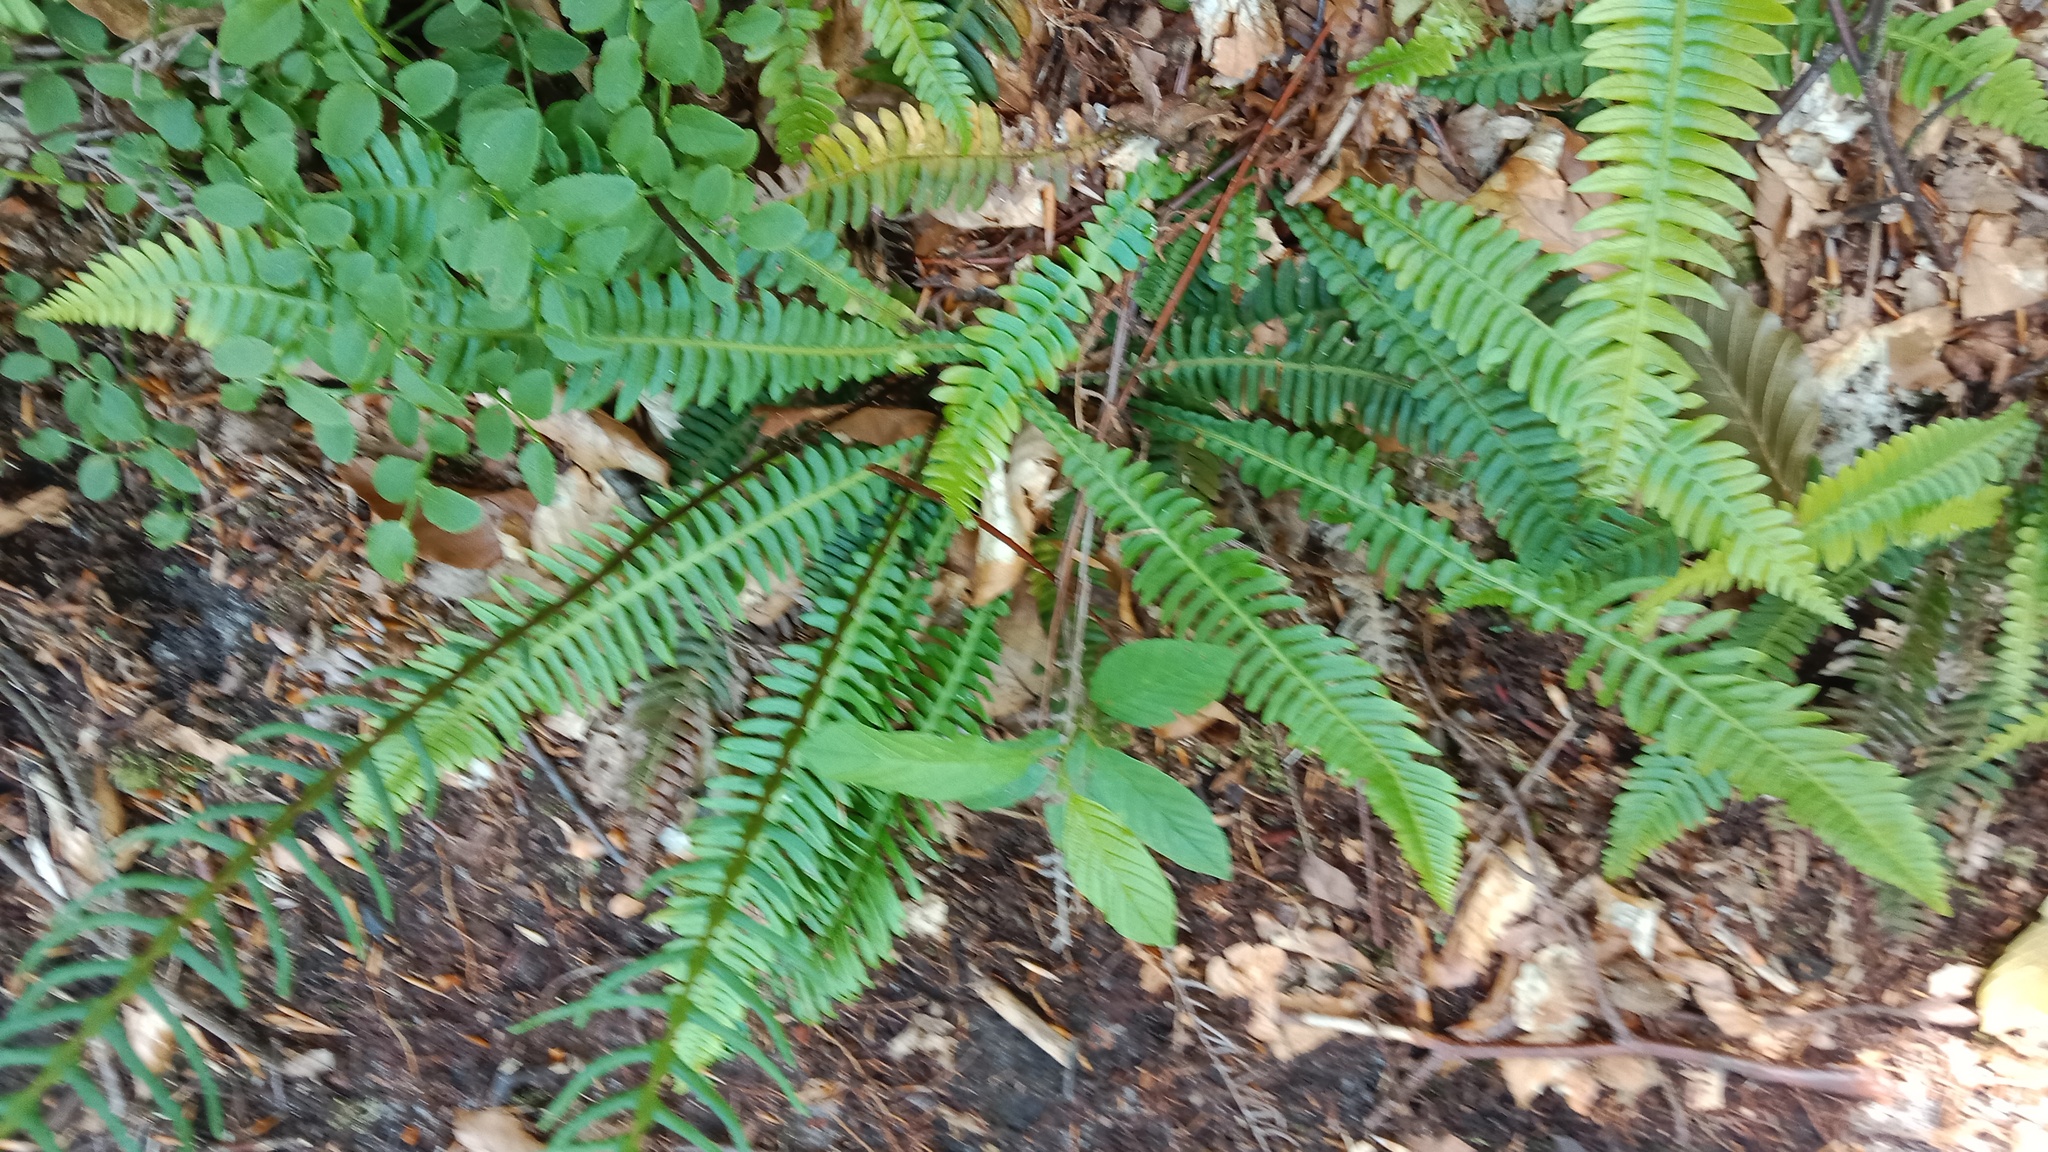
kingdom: Plantae
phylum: Tracheophyta
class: Polypodiopsida
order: Polypodiales
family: Blechnaceae
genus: Struthiopteris
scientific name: Struthiopteris spicant
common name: Deer fern
